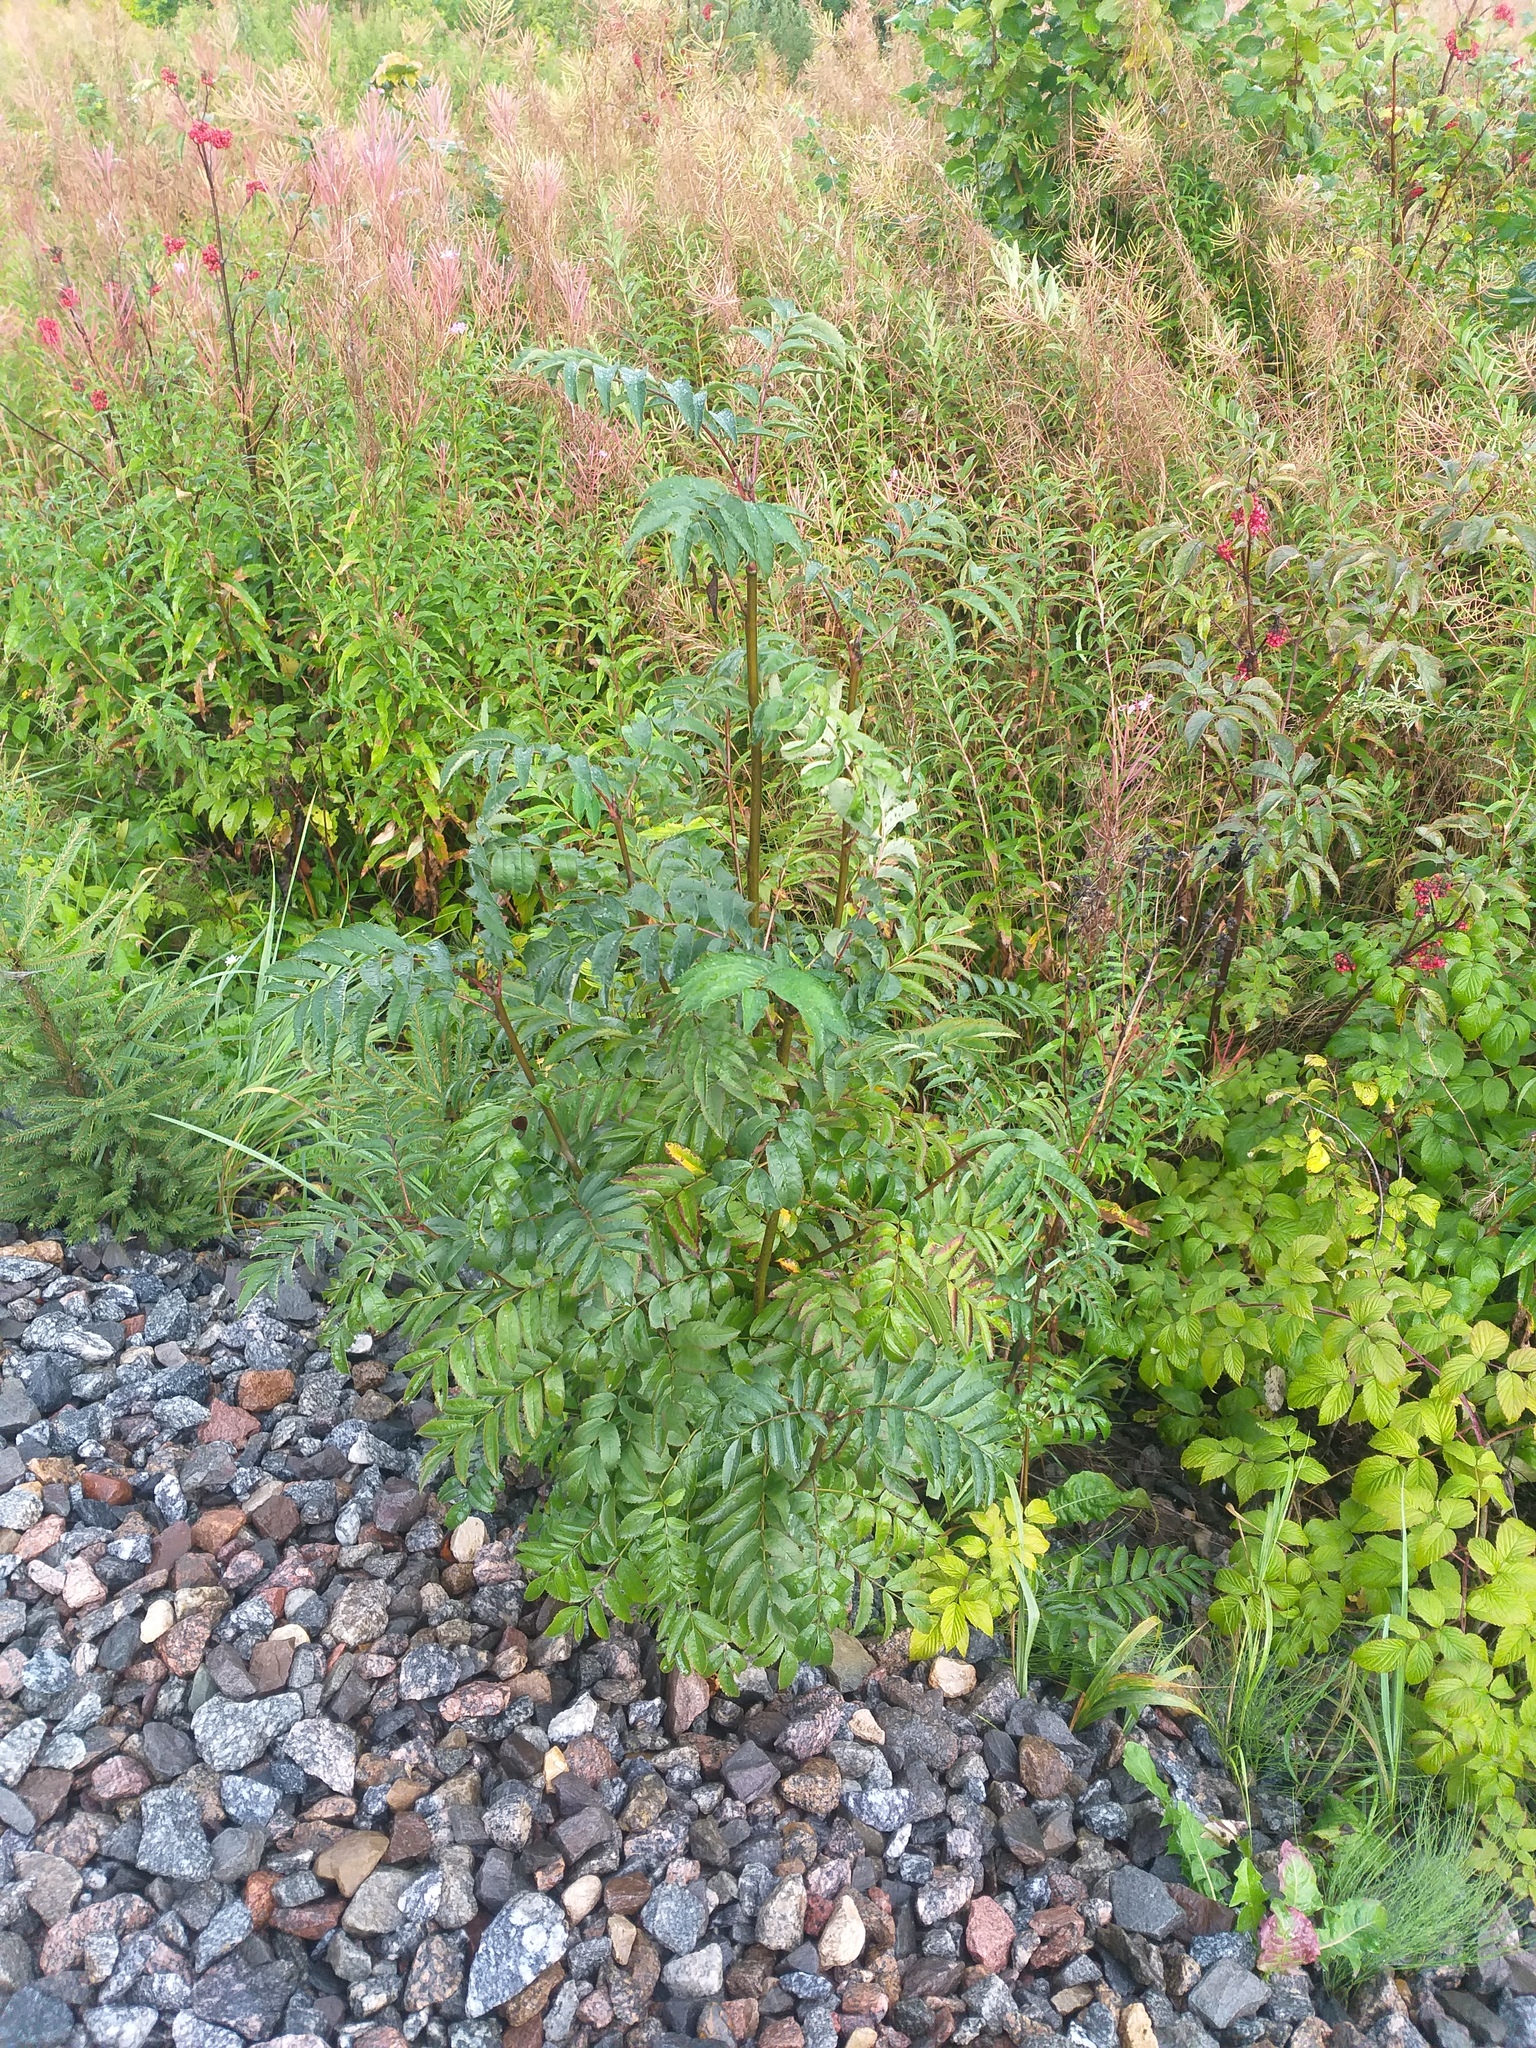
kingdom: Plantae
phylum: Tracheophyta
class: Magnoliopsida
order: Rosales
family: Rosaceae
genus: Sorbus
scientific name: Sorbus aucuparia
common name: Rowan
